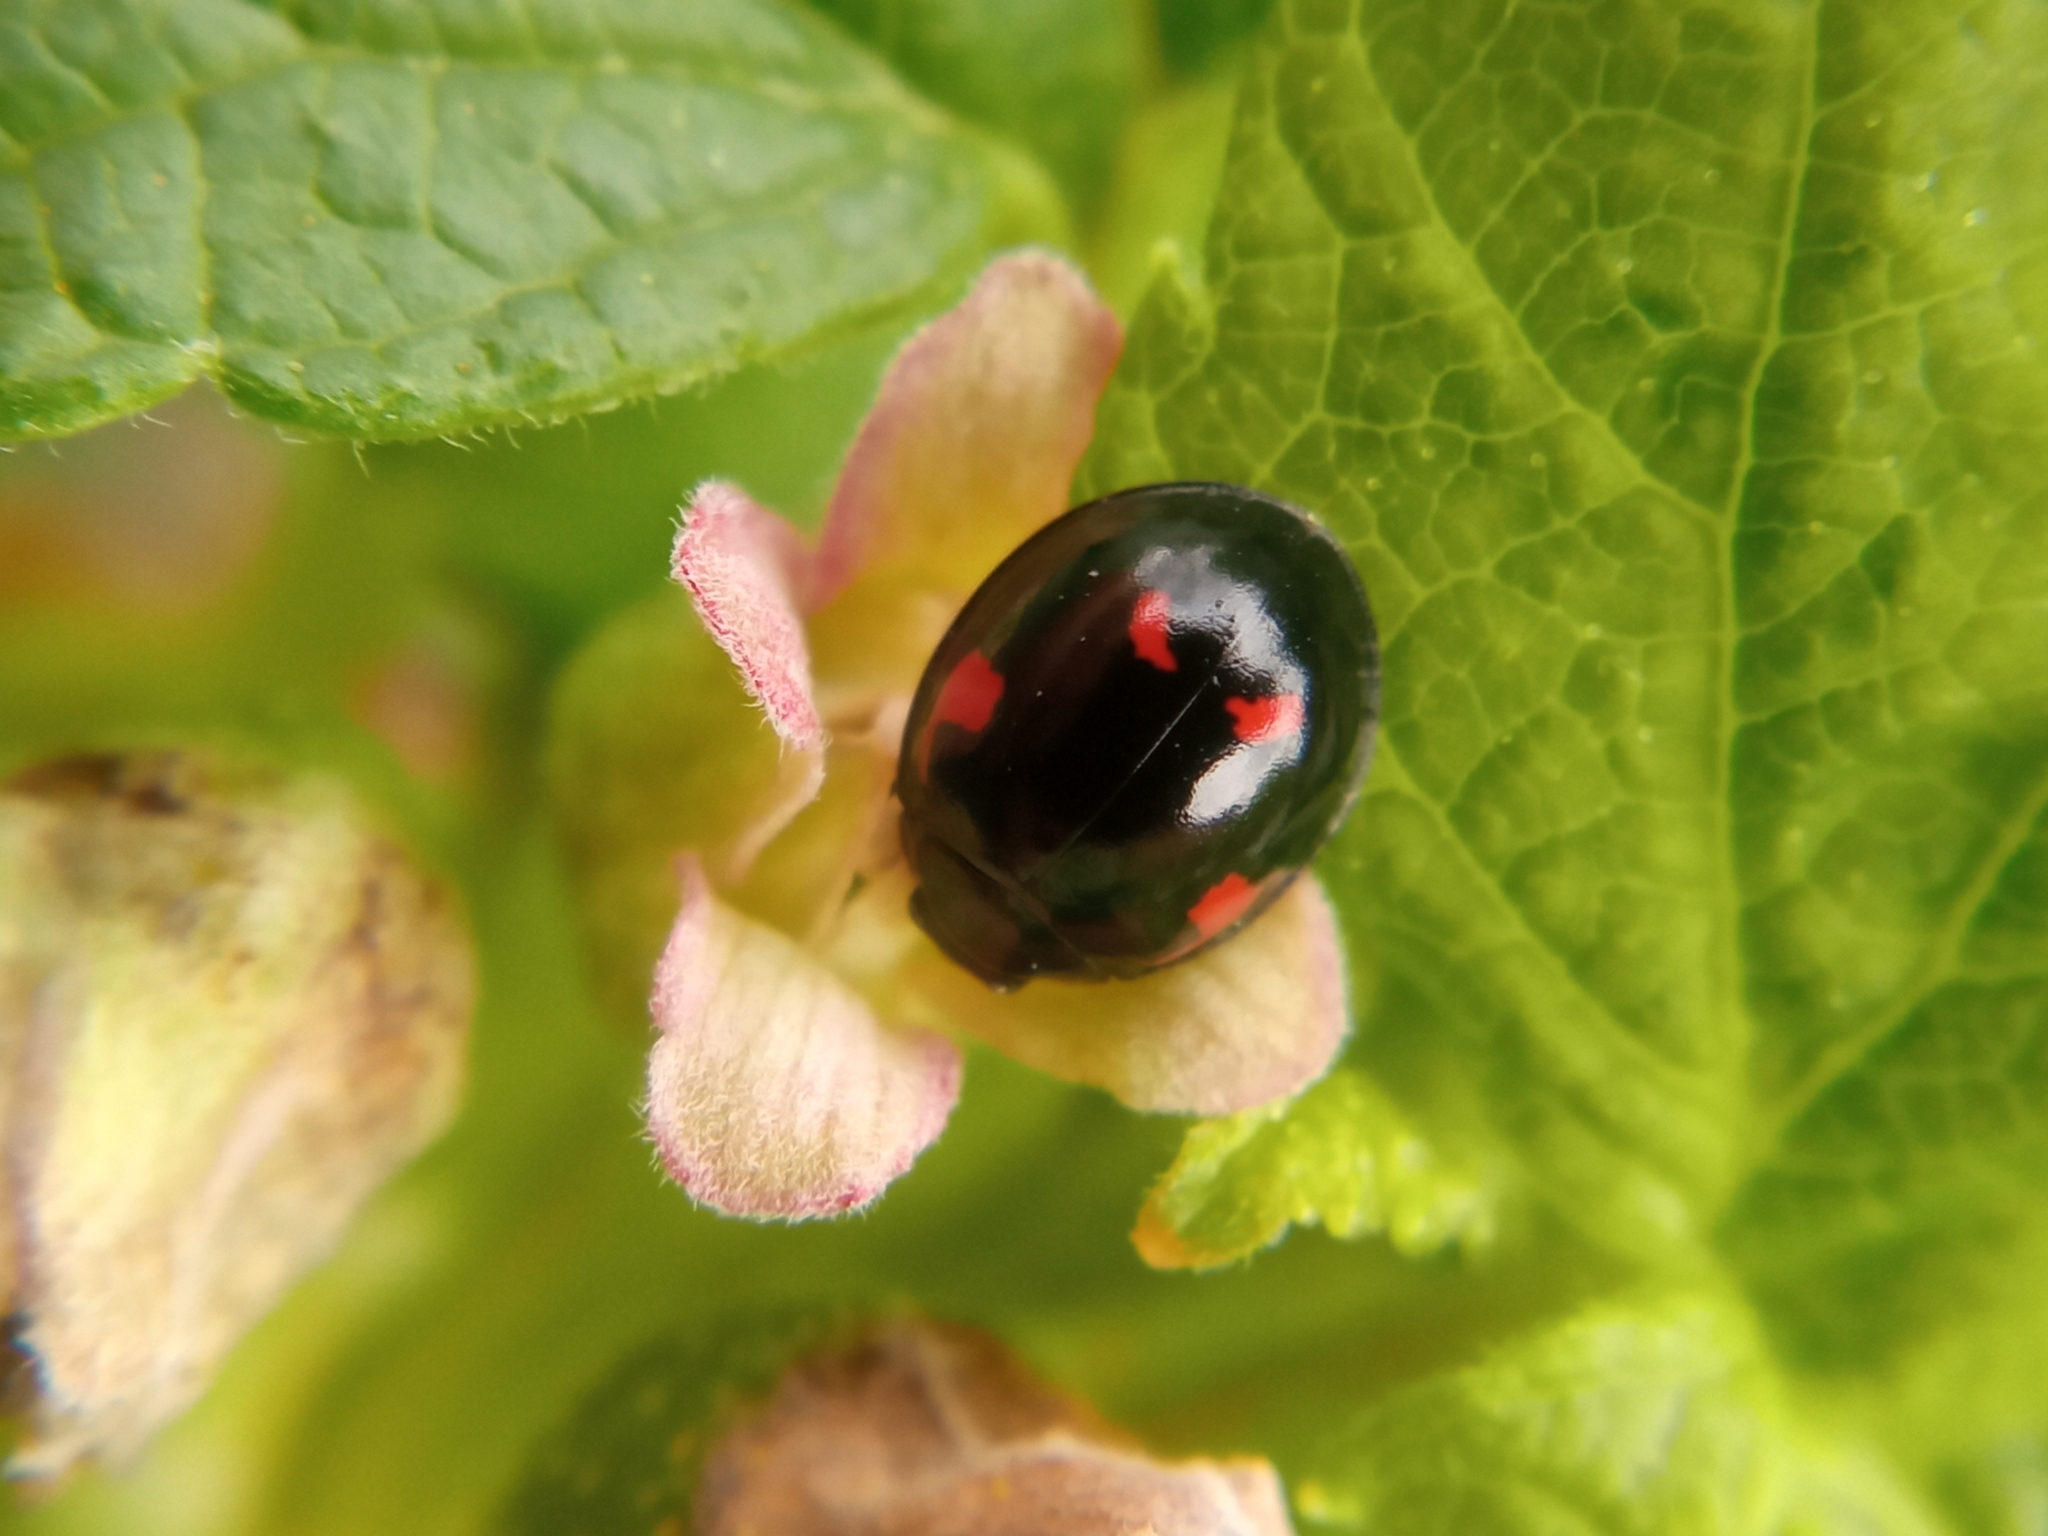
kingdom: Animalia
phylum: Arthropoda
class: Insecta
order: Coleoptera
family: Coccinellidae
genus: Brumus
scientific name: Brumus quadripustulatus
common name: Ladybird beetle
